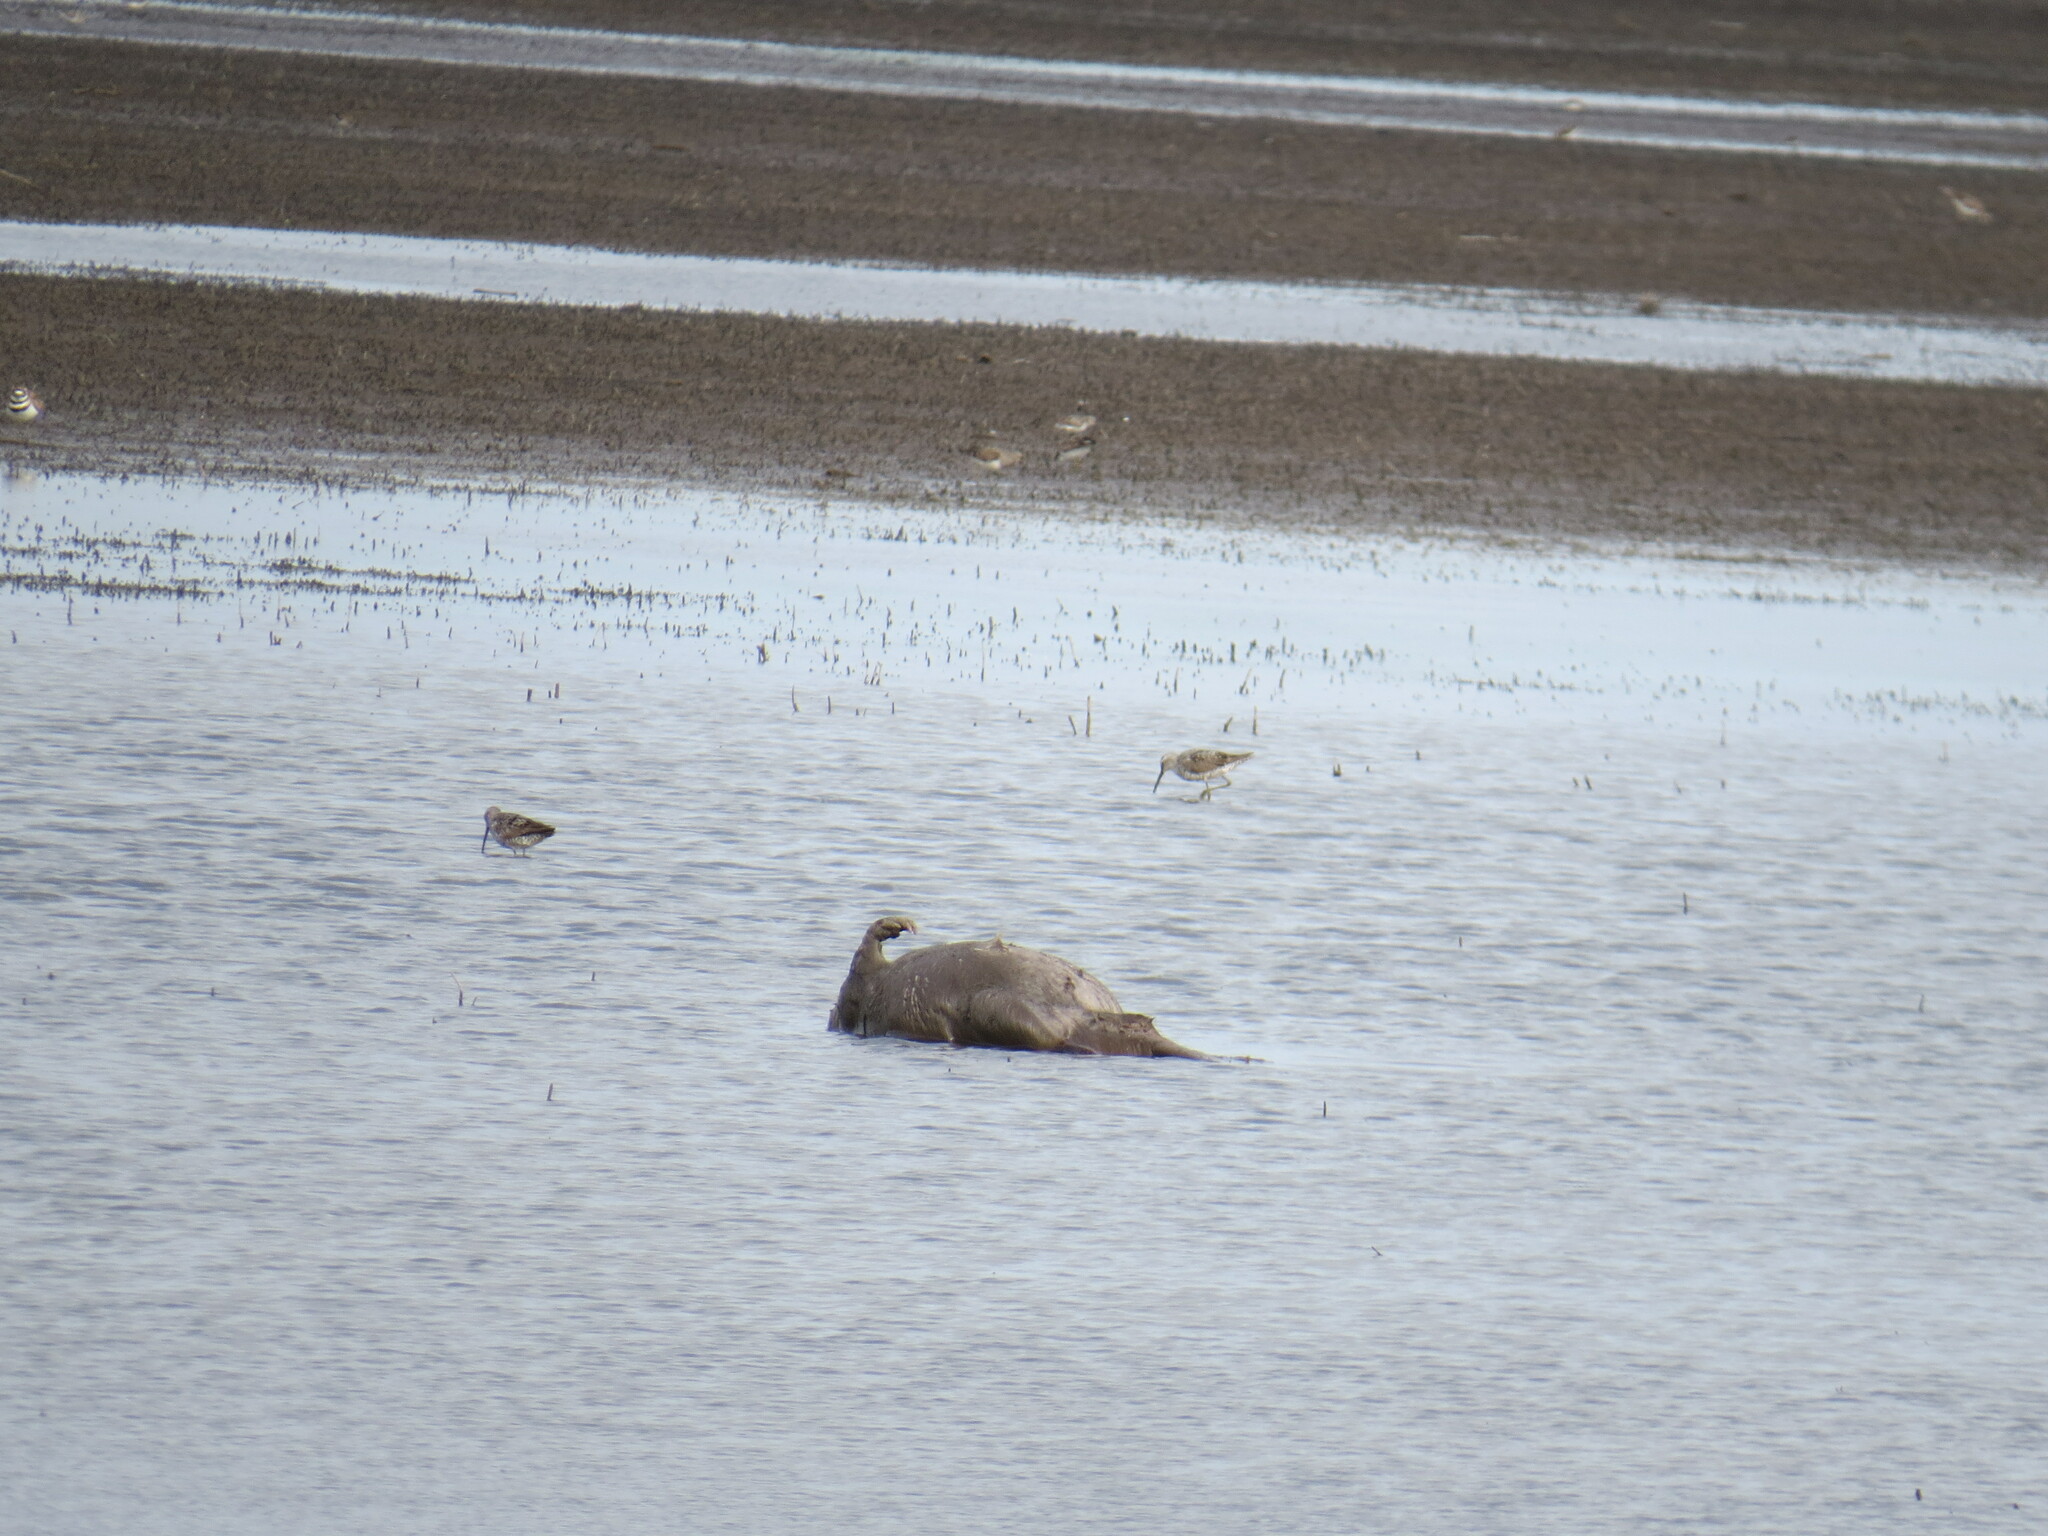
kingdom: Animalia
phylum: Chordata
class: Mammalia
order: Rodentia
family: Castoridae
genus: Castor
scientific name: Castor canadensis
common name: American beaver
